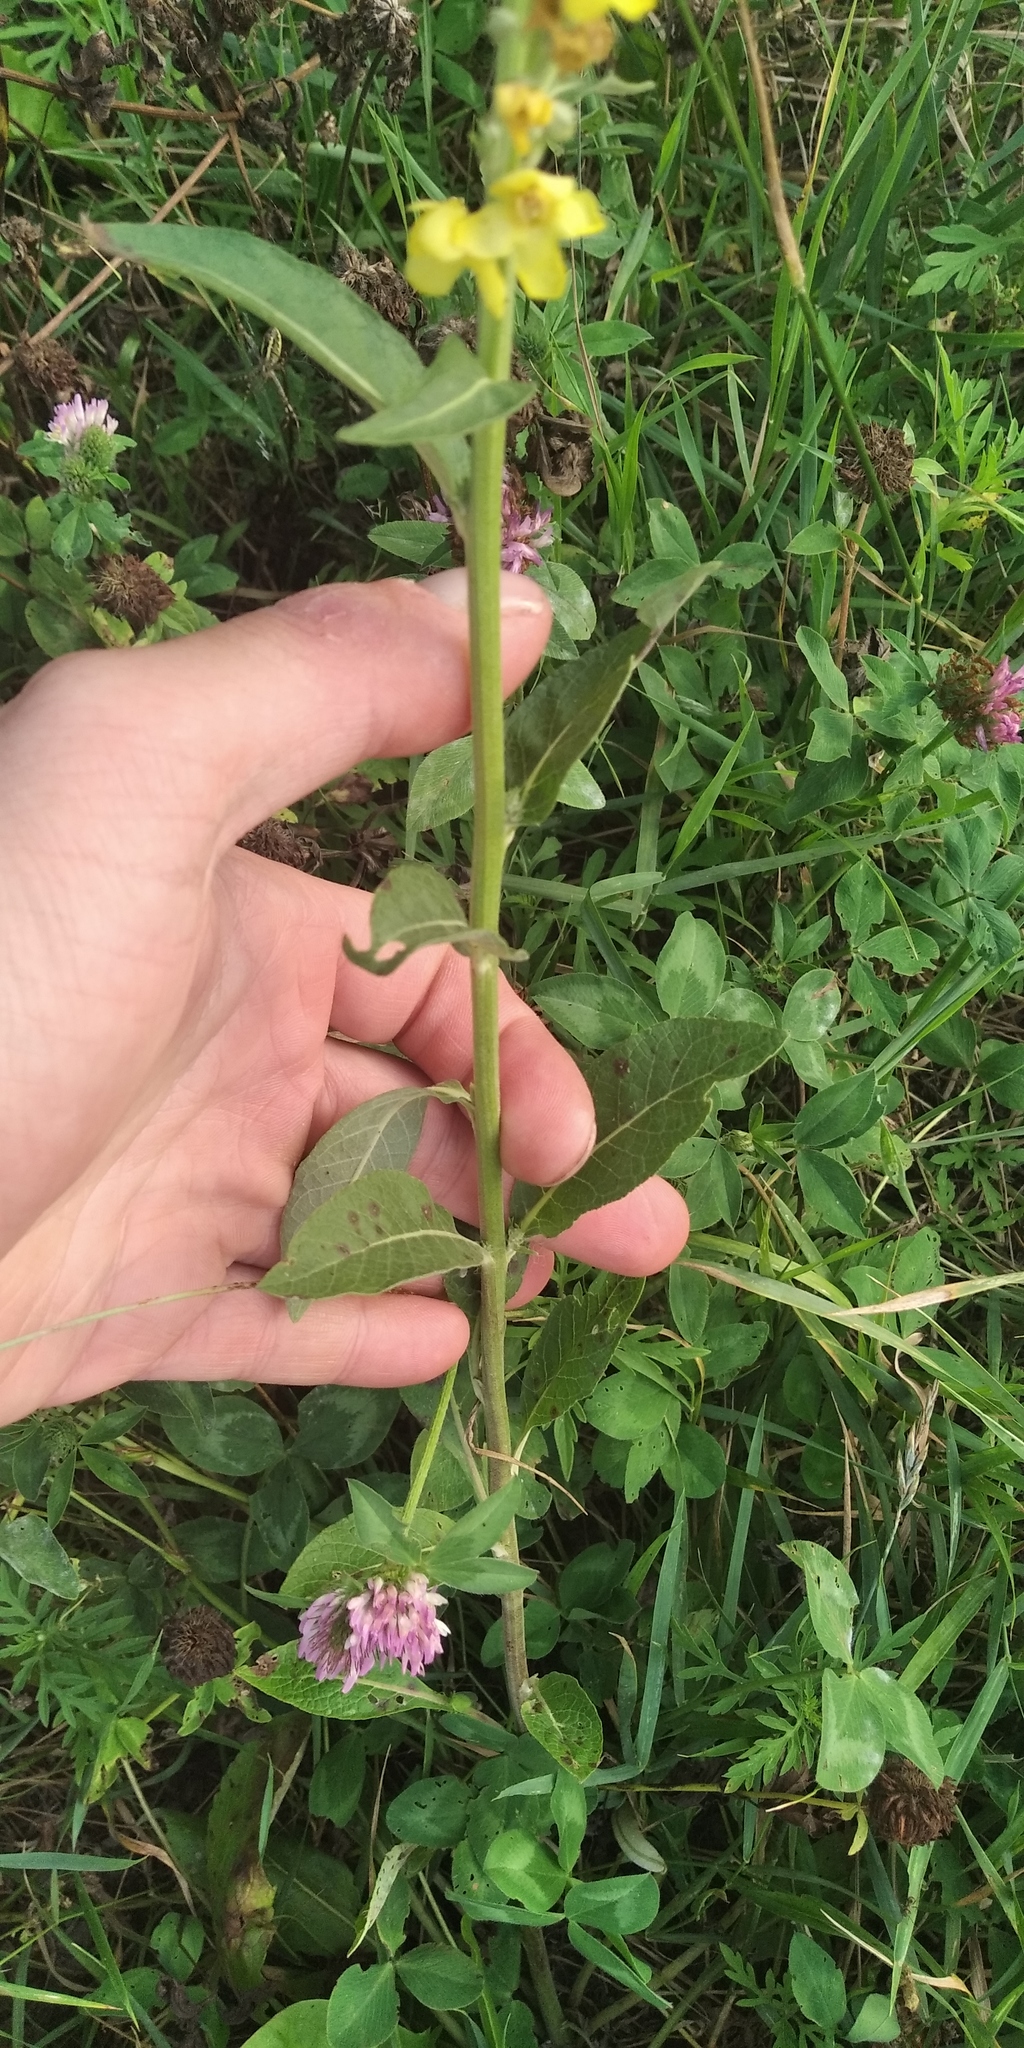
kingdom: Plantae
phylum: Tracheophyta
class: Magnoliopsida
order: Lamiales
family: Scrophulariaceae
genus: Verbascum
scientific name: Verbascum lychnitis
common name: White mullein
